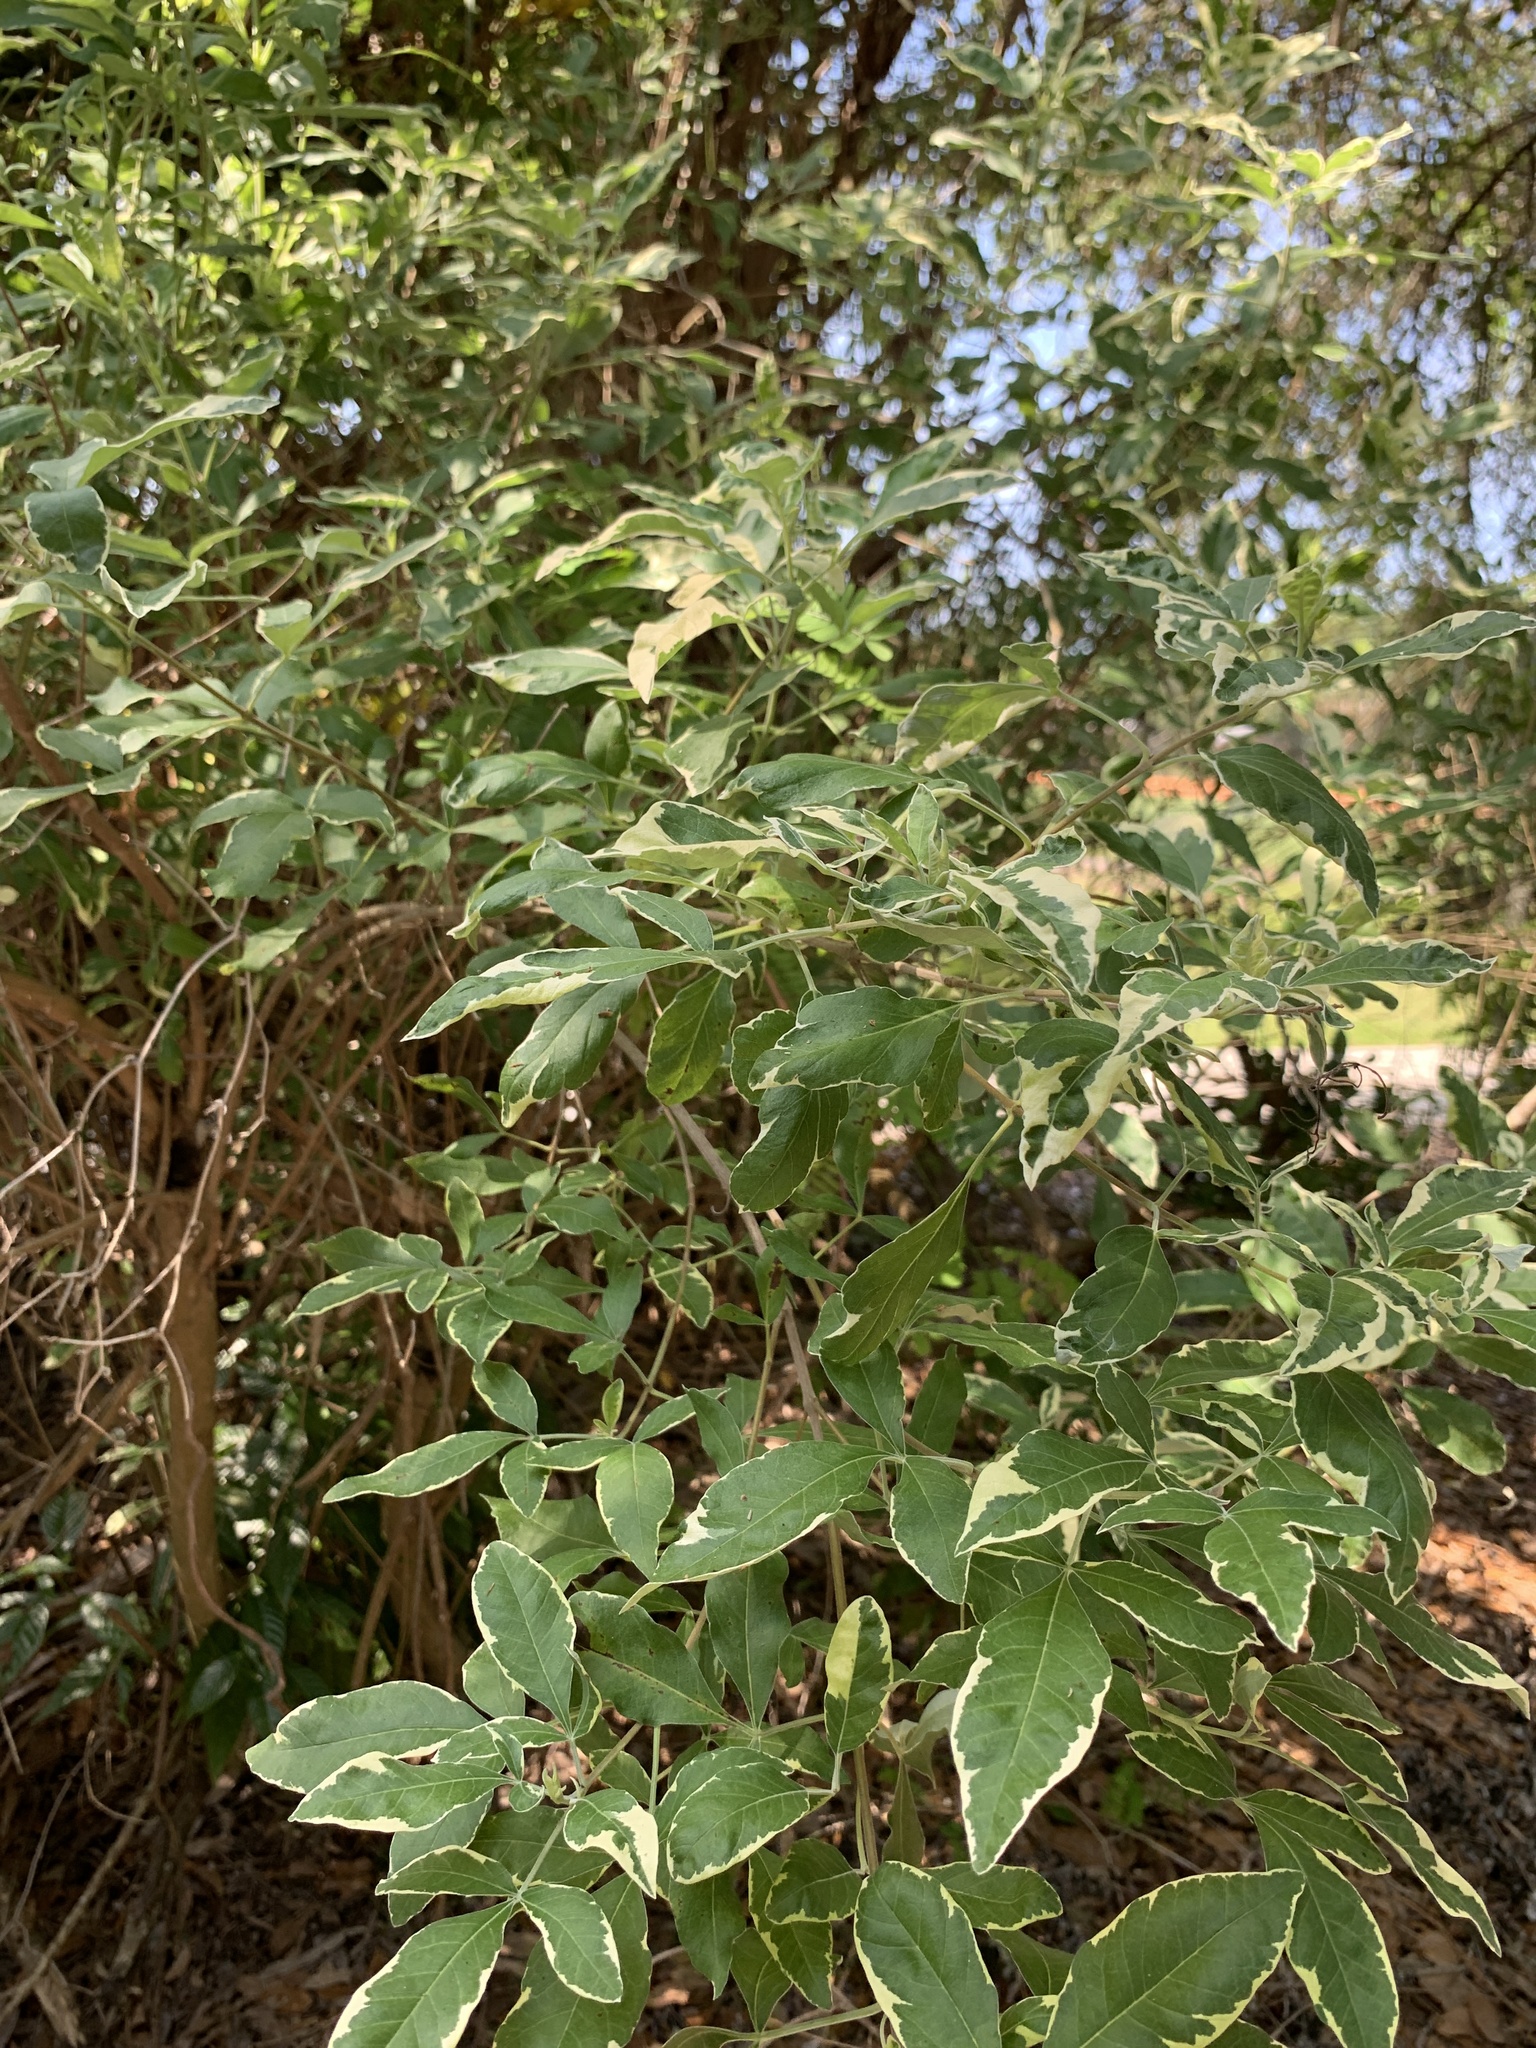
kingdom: Plantae
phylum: Tracheophyta
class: Magnoliopsida
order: Lamiales
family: Lamiaceae
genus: Vitex
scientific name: Vitex trifolia
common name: Simpleleaf chastetree
